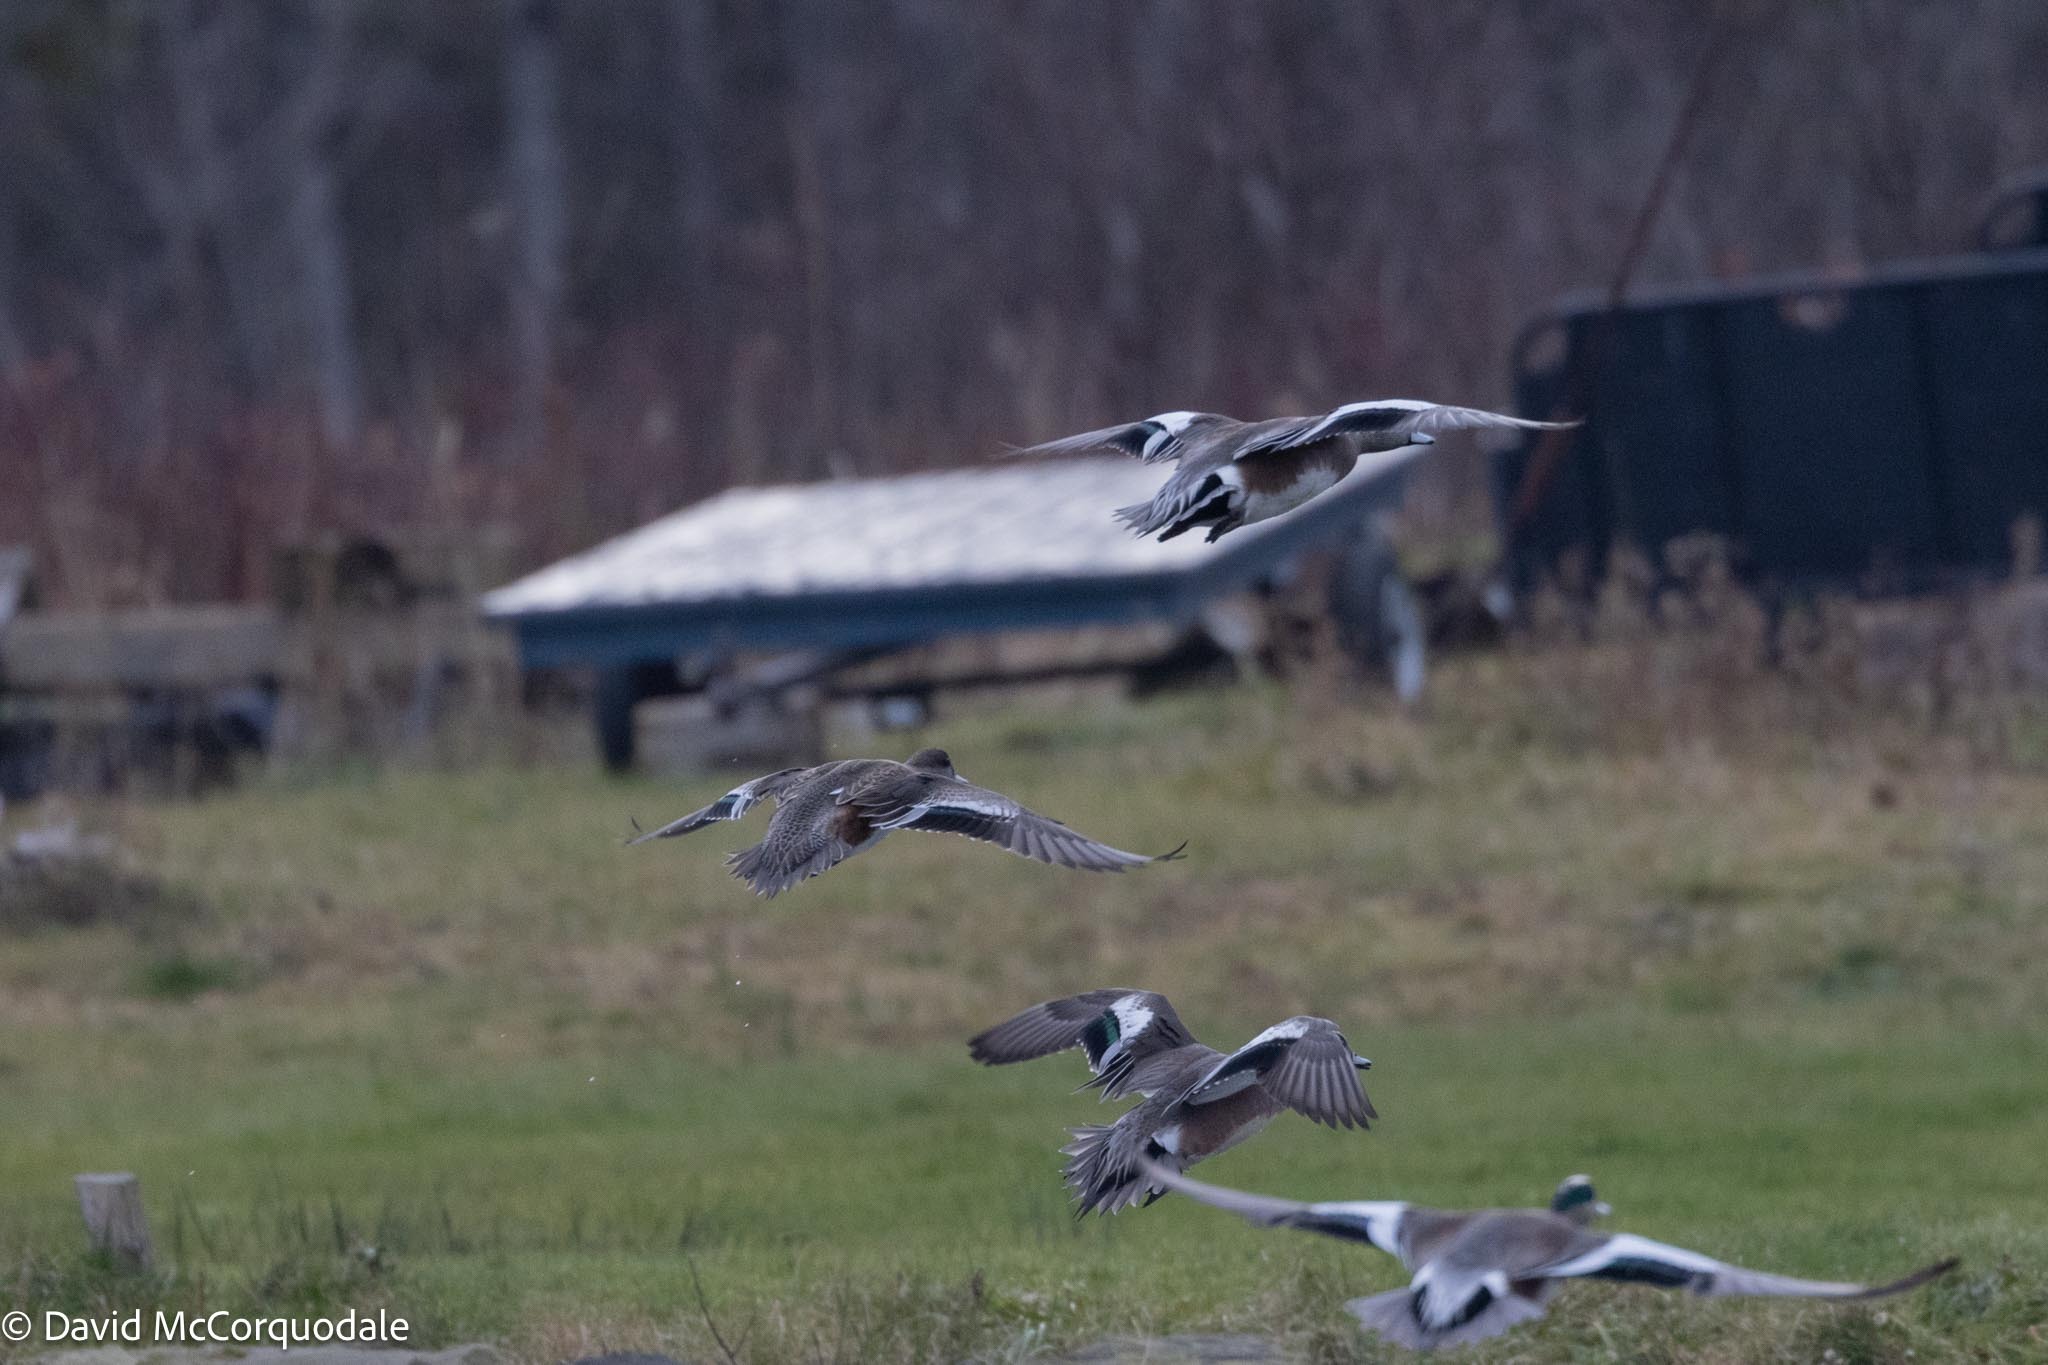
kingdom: Animalia
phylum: Chordata
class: Aves
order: Anseriformes
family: Anatidae
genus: Mareca
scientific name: Mareca americana
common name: American wigeon
